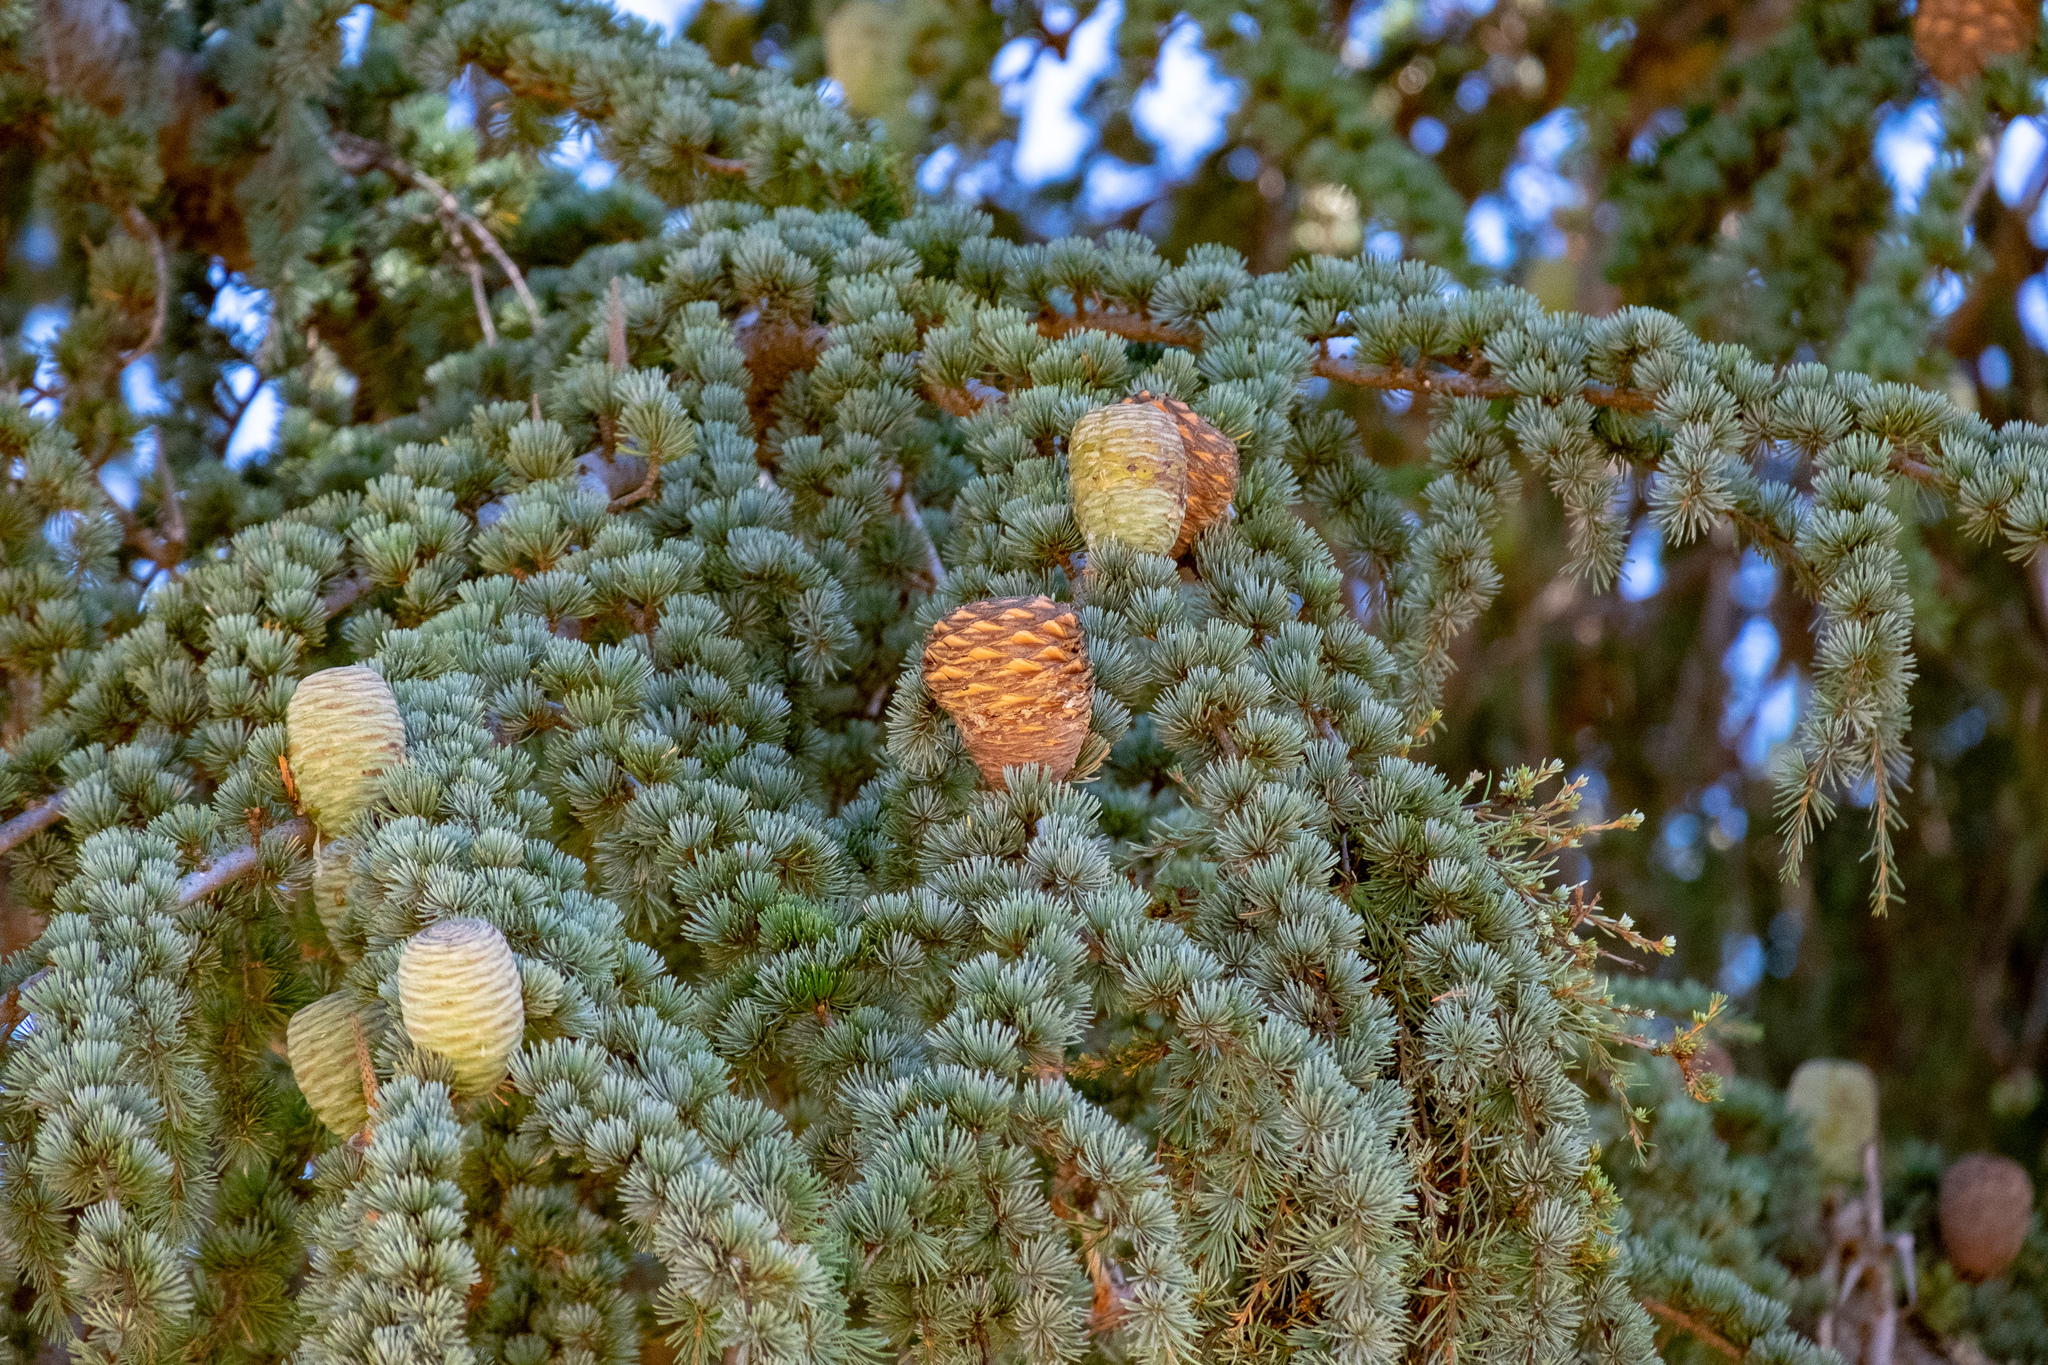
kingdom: Plantae
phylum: Tracheophyta
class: Pinopsida
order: Pinales
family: Pinaceae
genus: Cedrus
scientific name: Cedrus atlantica
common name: Atlas cedar
